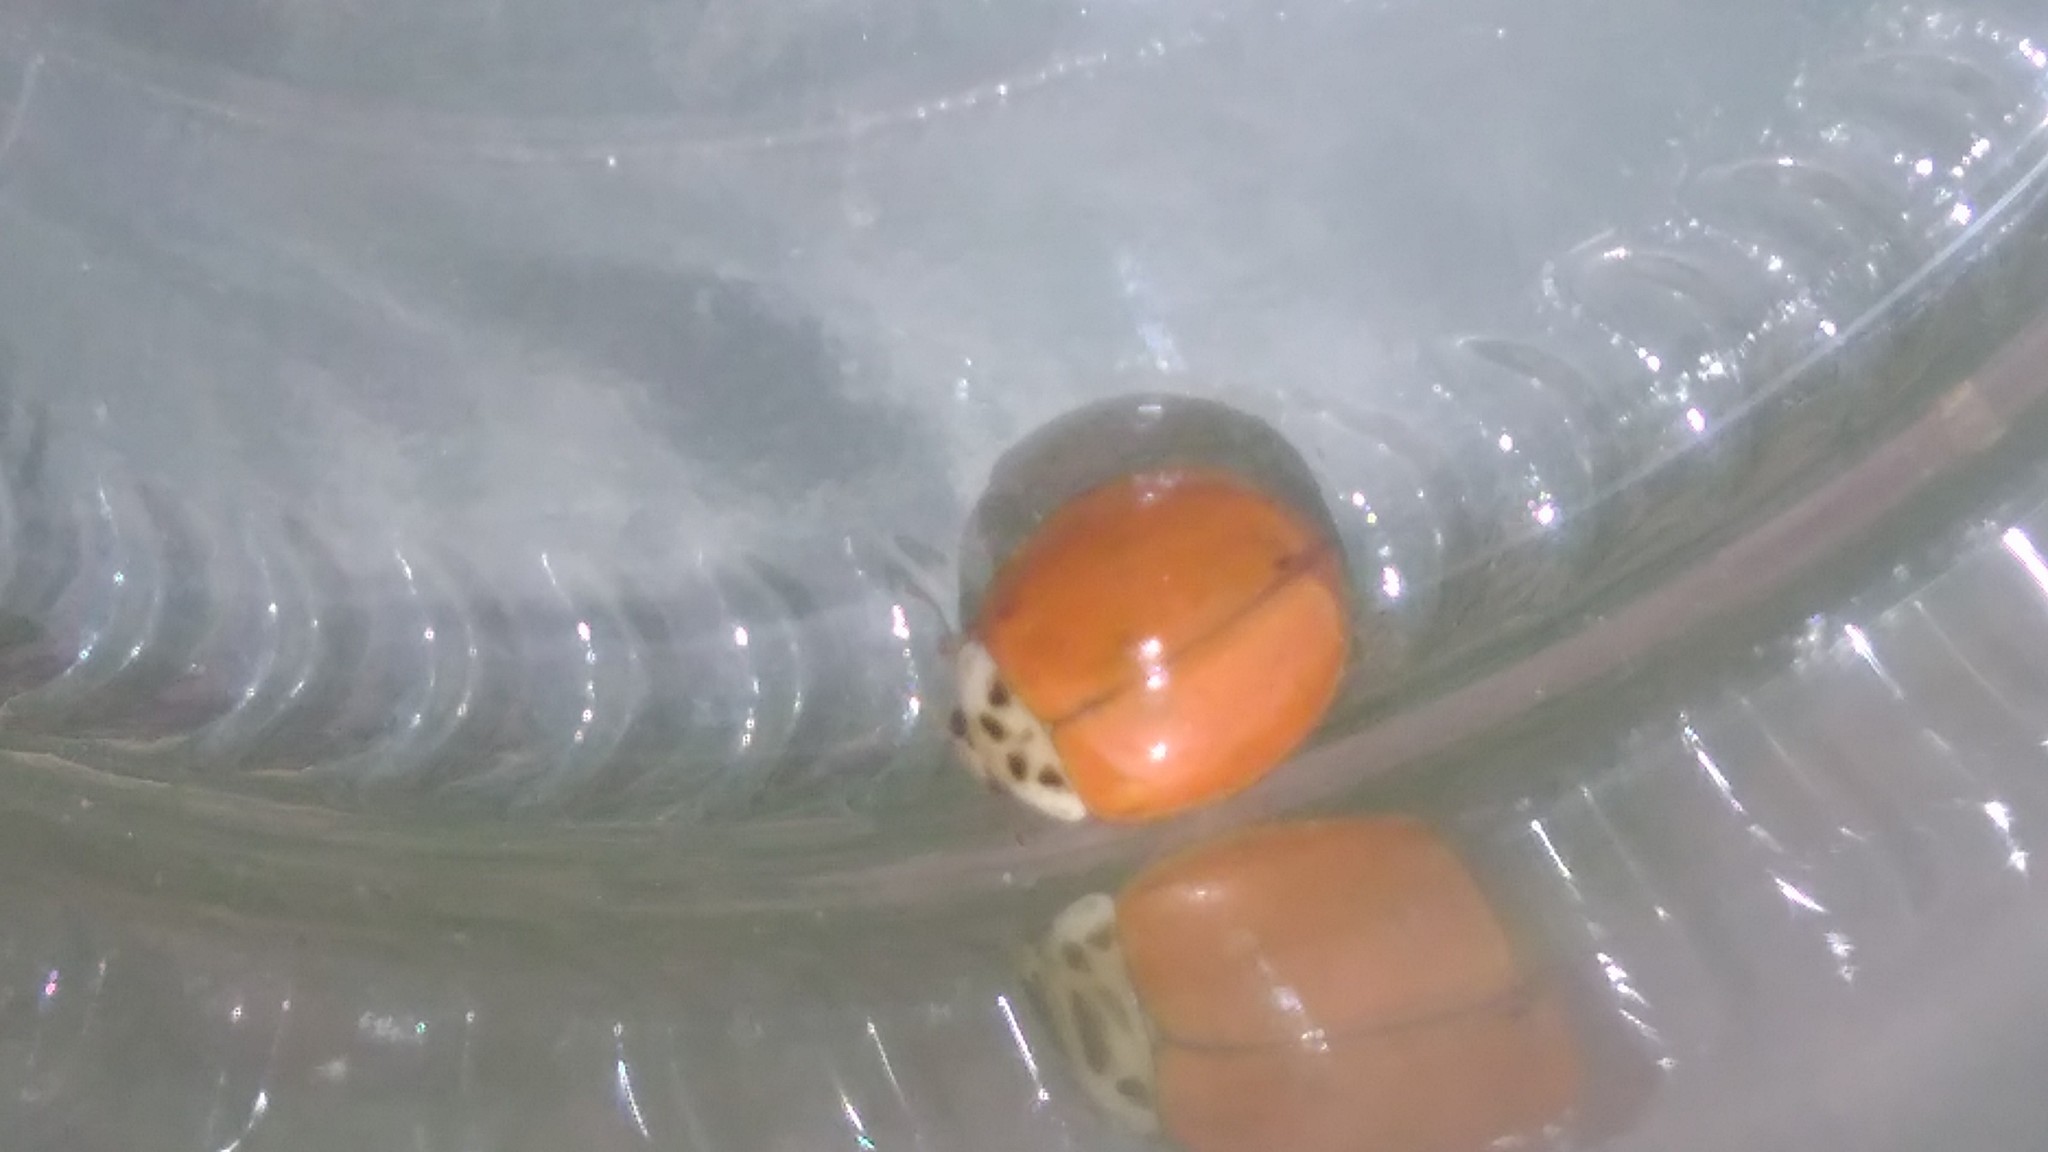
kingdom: Animalia
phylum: Arthropoda
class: Insecta
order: Coleoptera
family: Coccinellidae
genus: Harmonia
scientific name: Harmonia axyridis
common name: Harlequin ladybird
